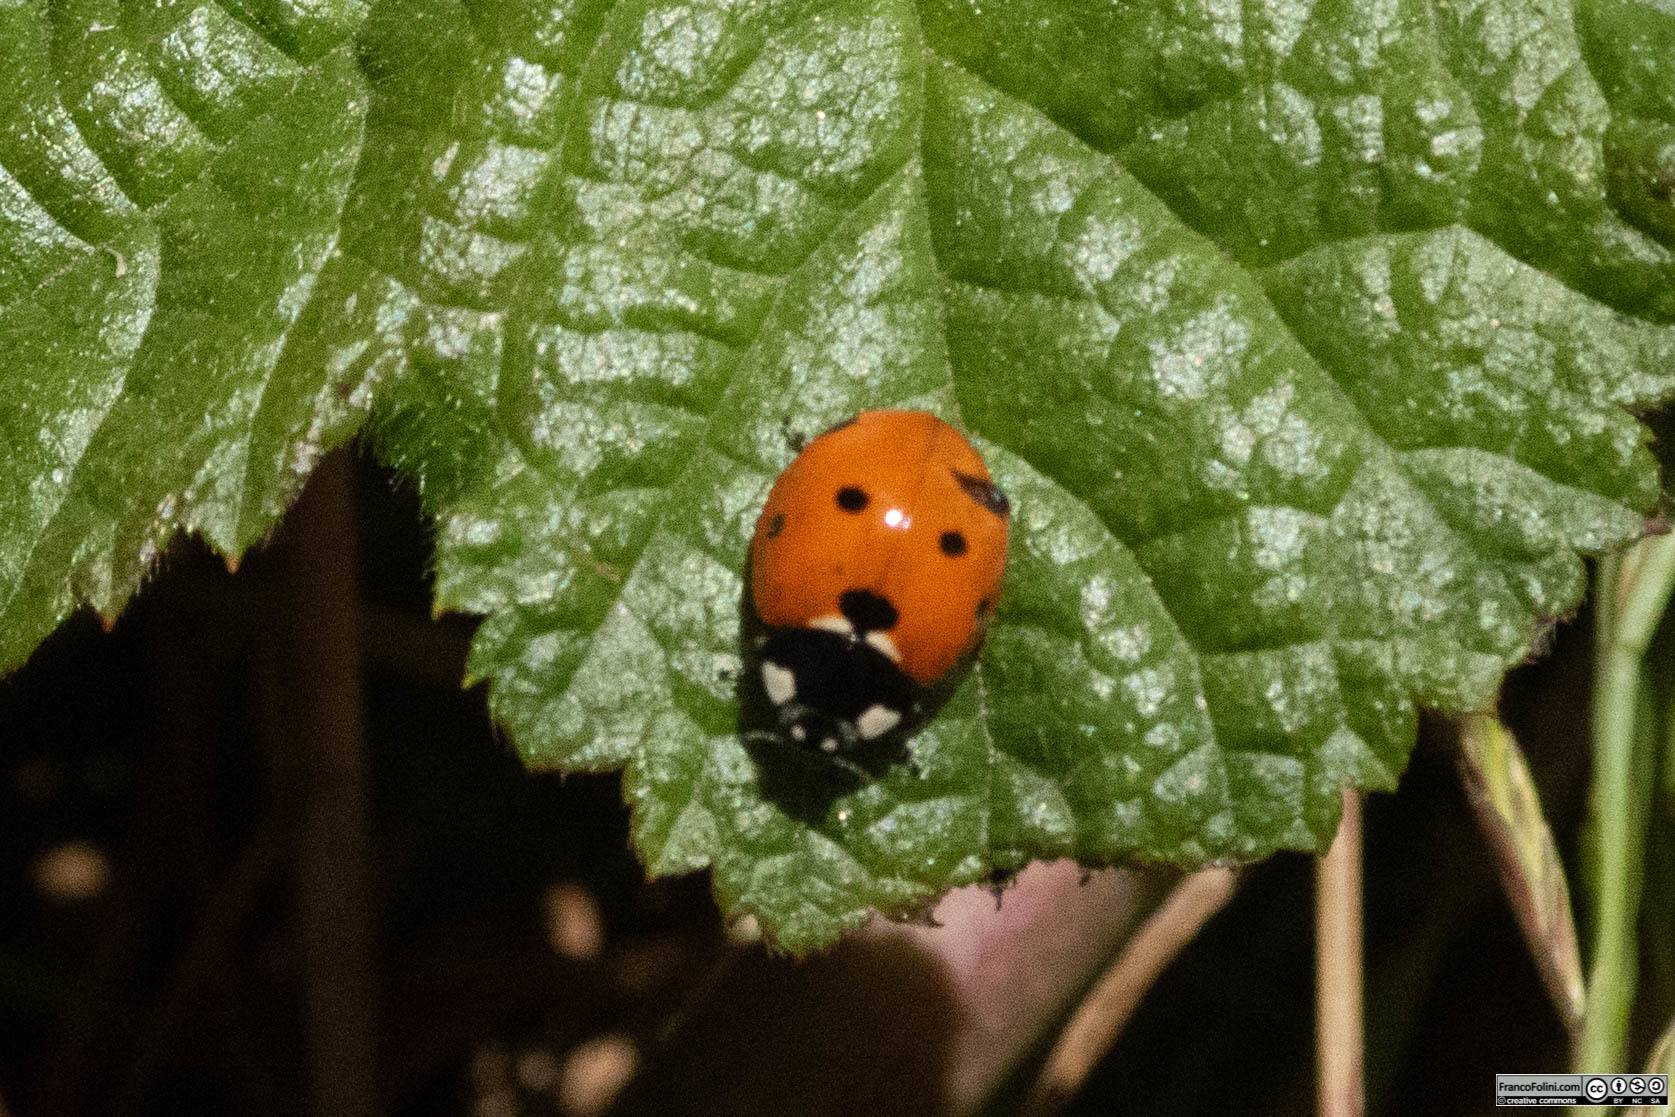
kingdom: Animalia
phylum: Arthropoda
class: Insecta
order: Coleoptera
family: Coccinellidae
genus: Coccinella
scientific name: Coccinella septempunctata
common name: Sevenspotted lady beetle
